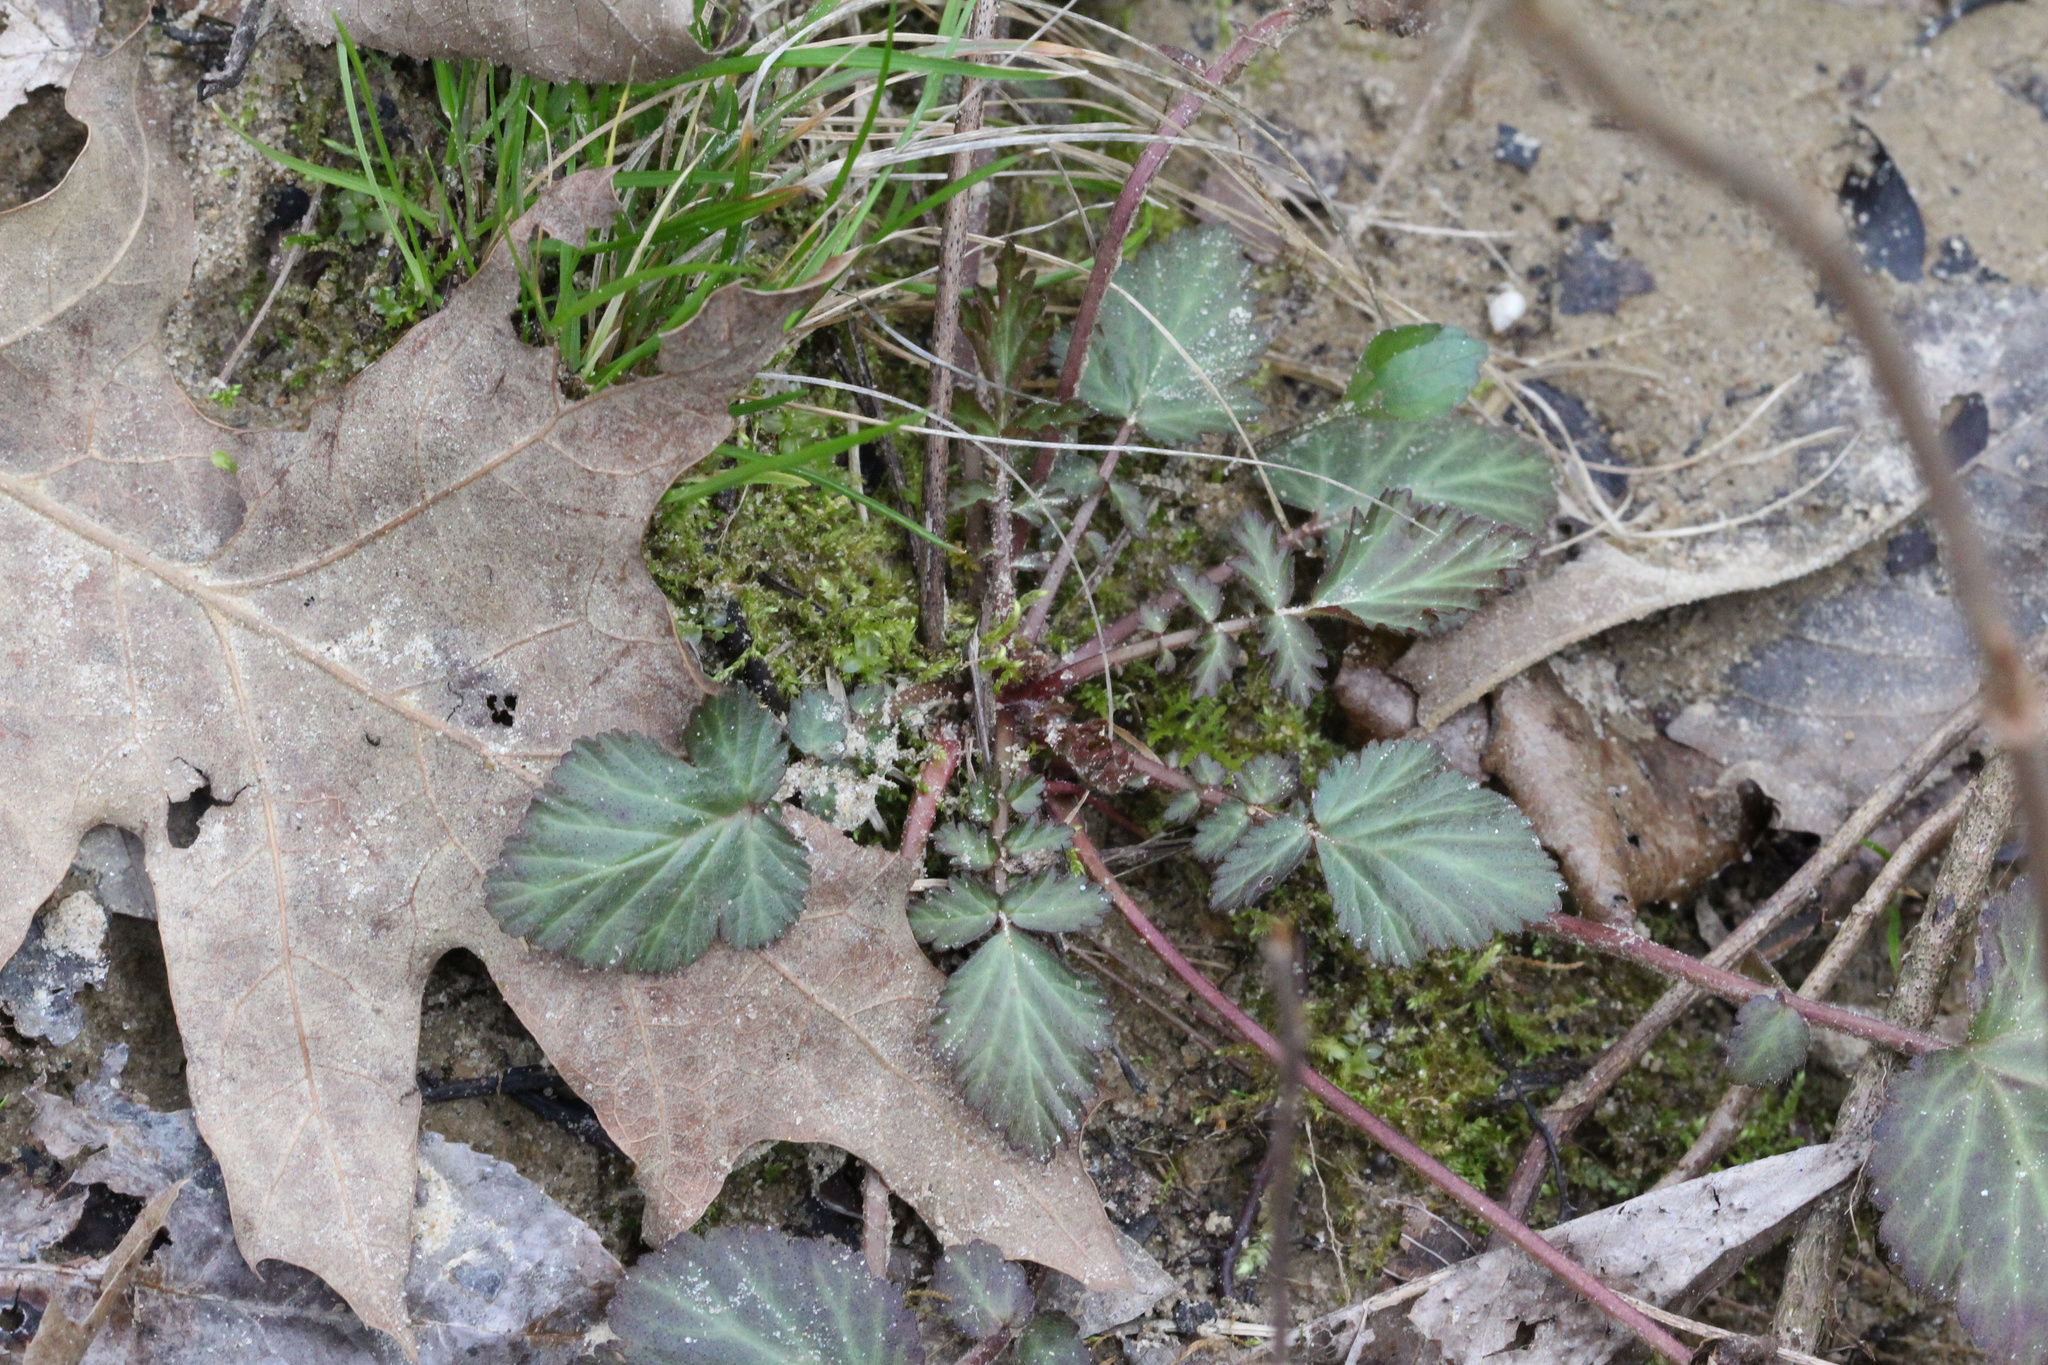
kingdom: Plantae
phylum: Tracheophyta
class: Magnoliopsida
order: Rosales
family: Rosaceae
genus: Geum
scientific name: Geum canadense
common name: White avens
